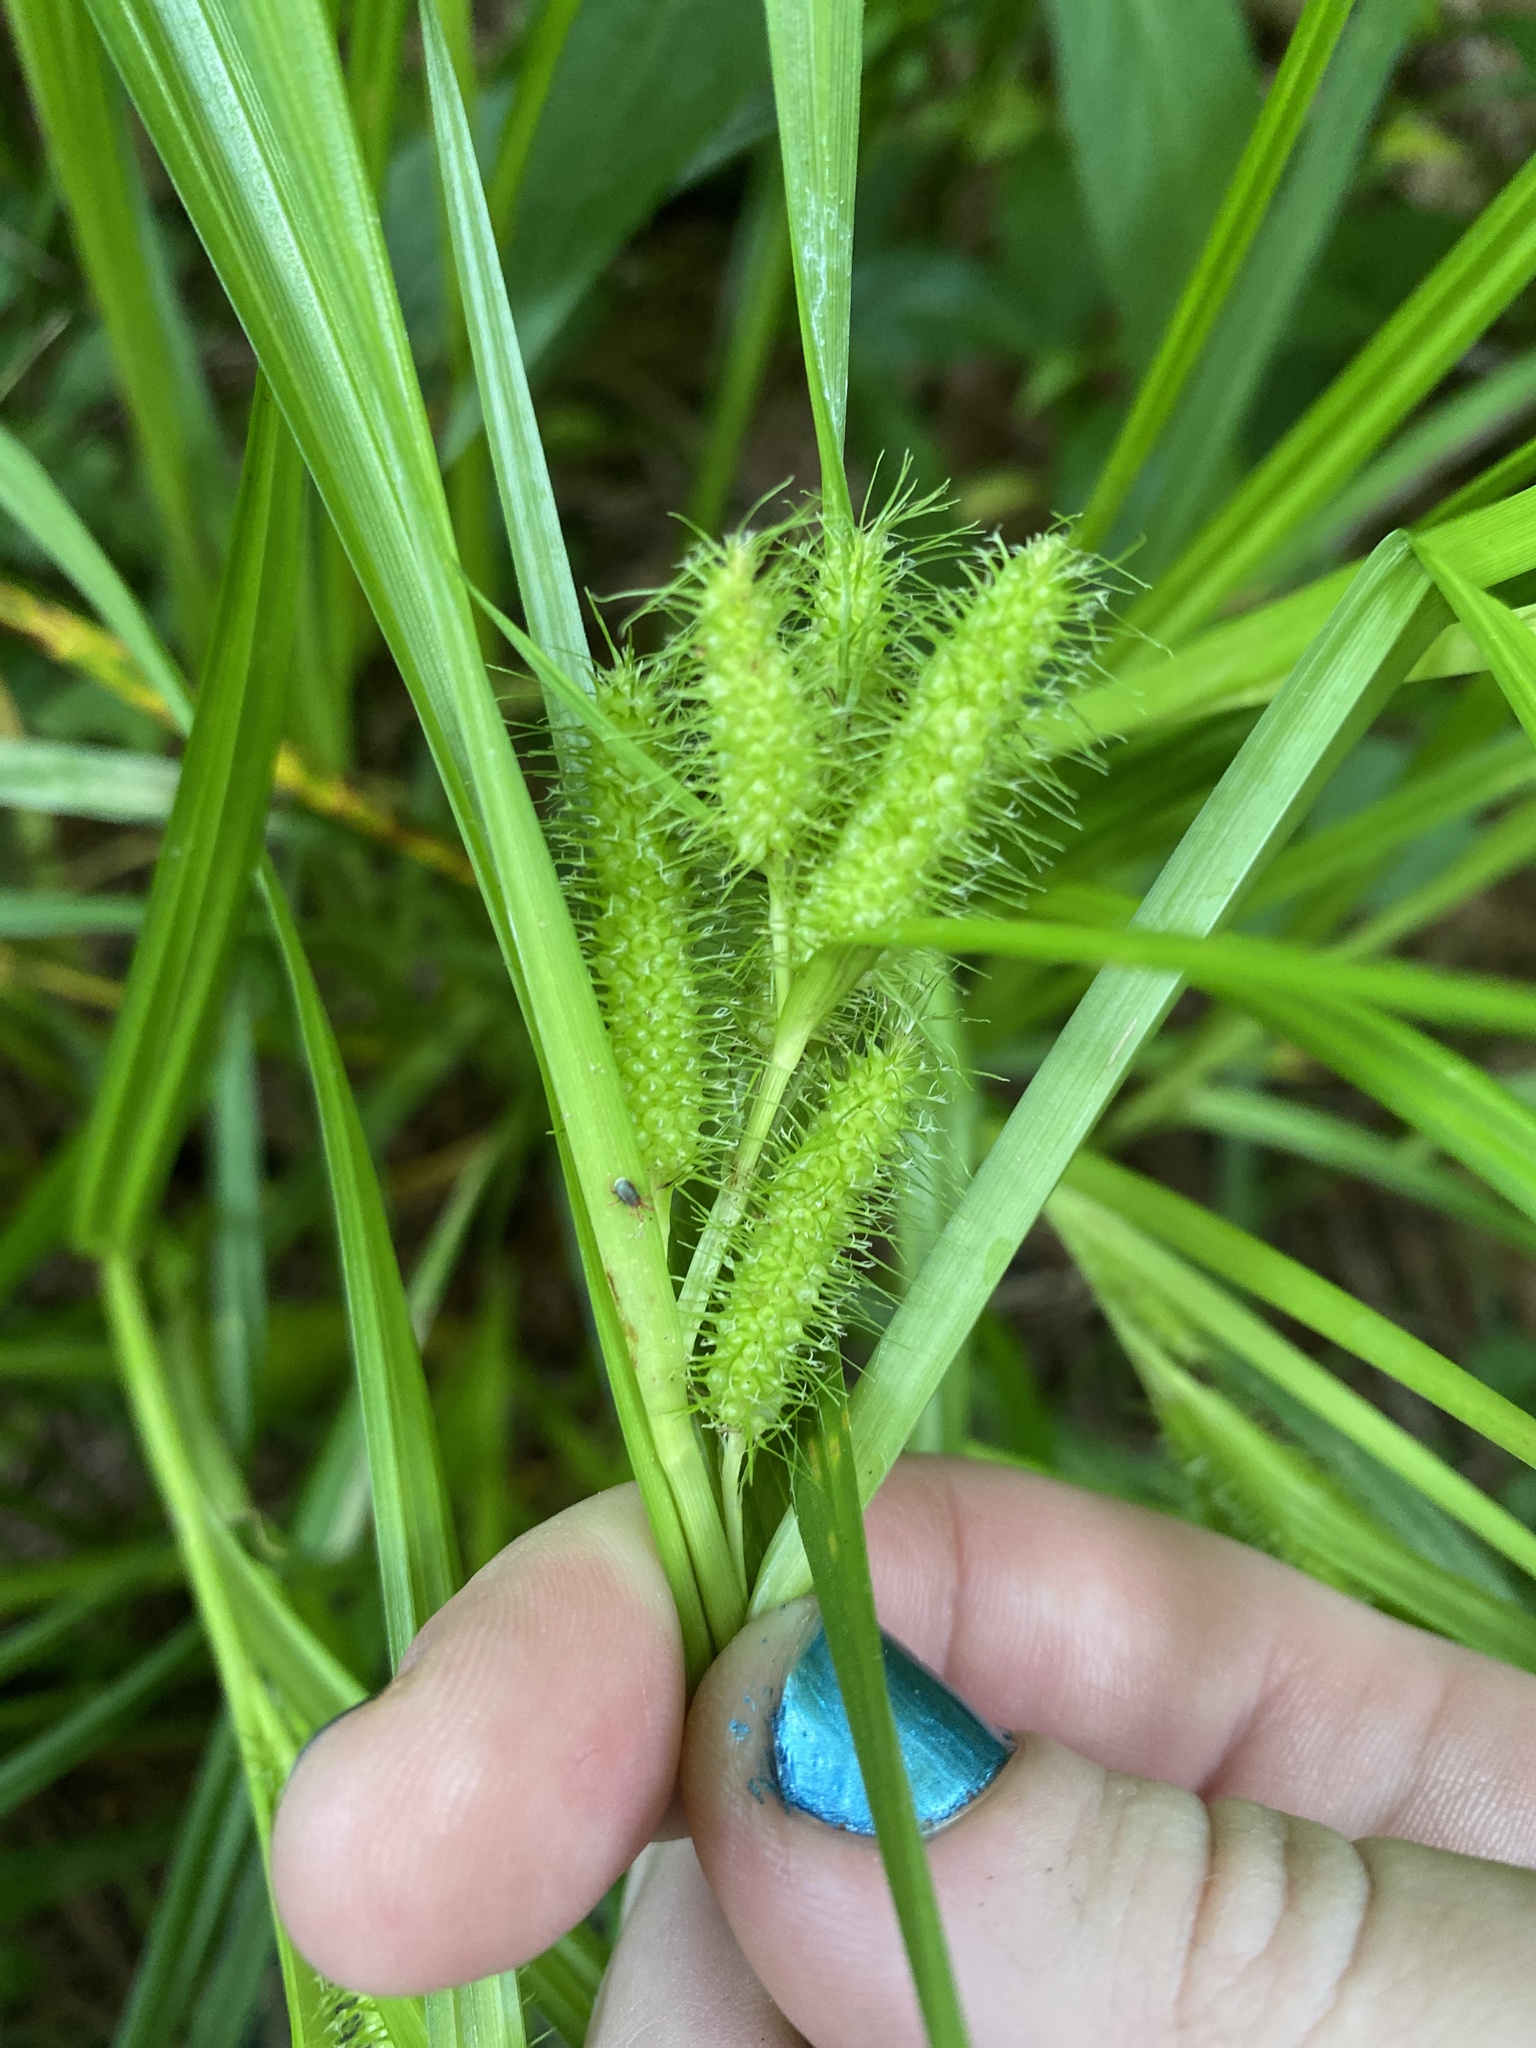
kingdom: Plantae
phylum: Tracheophyta
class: Liliopsida
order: Poales
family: Cyperaceae
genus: Carex
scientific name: Carex frankii
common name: Frank's sedge
